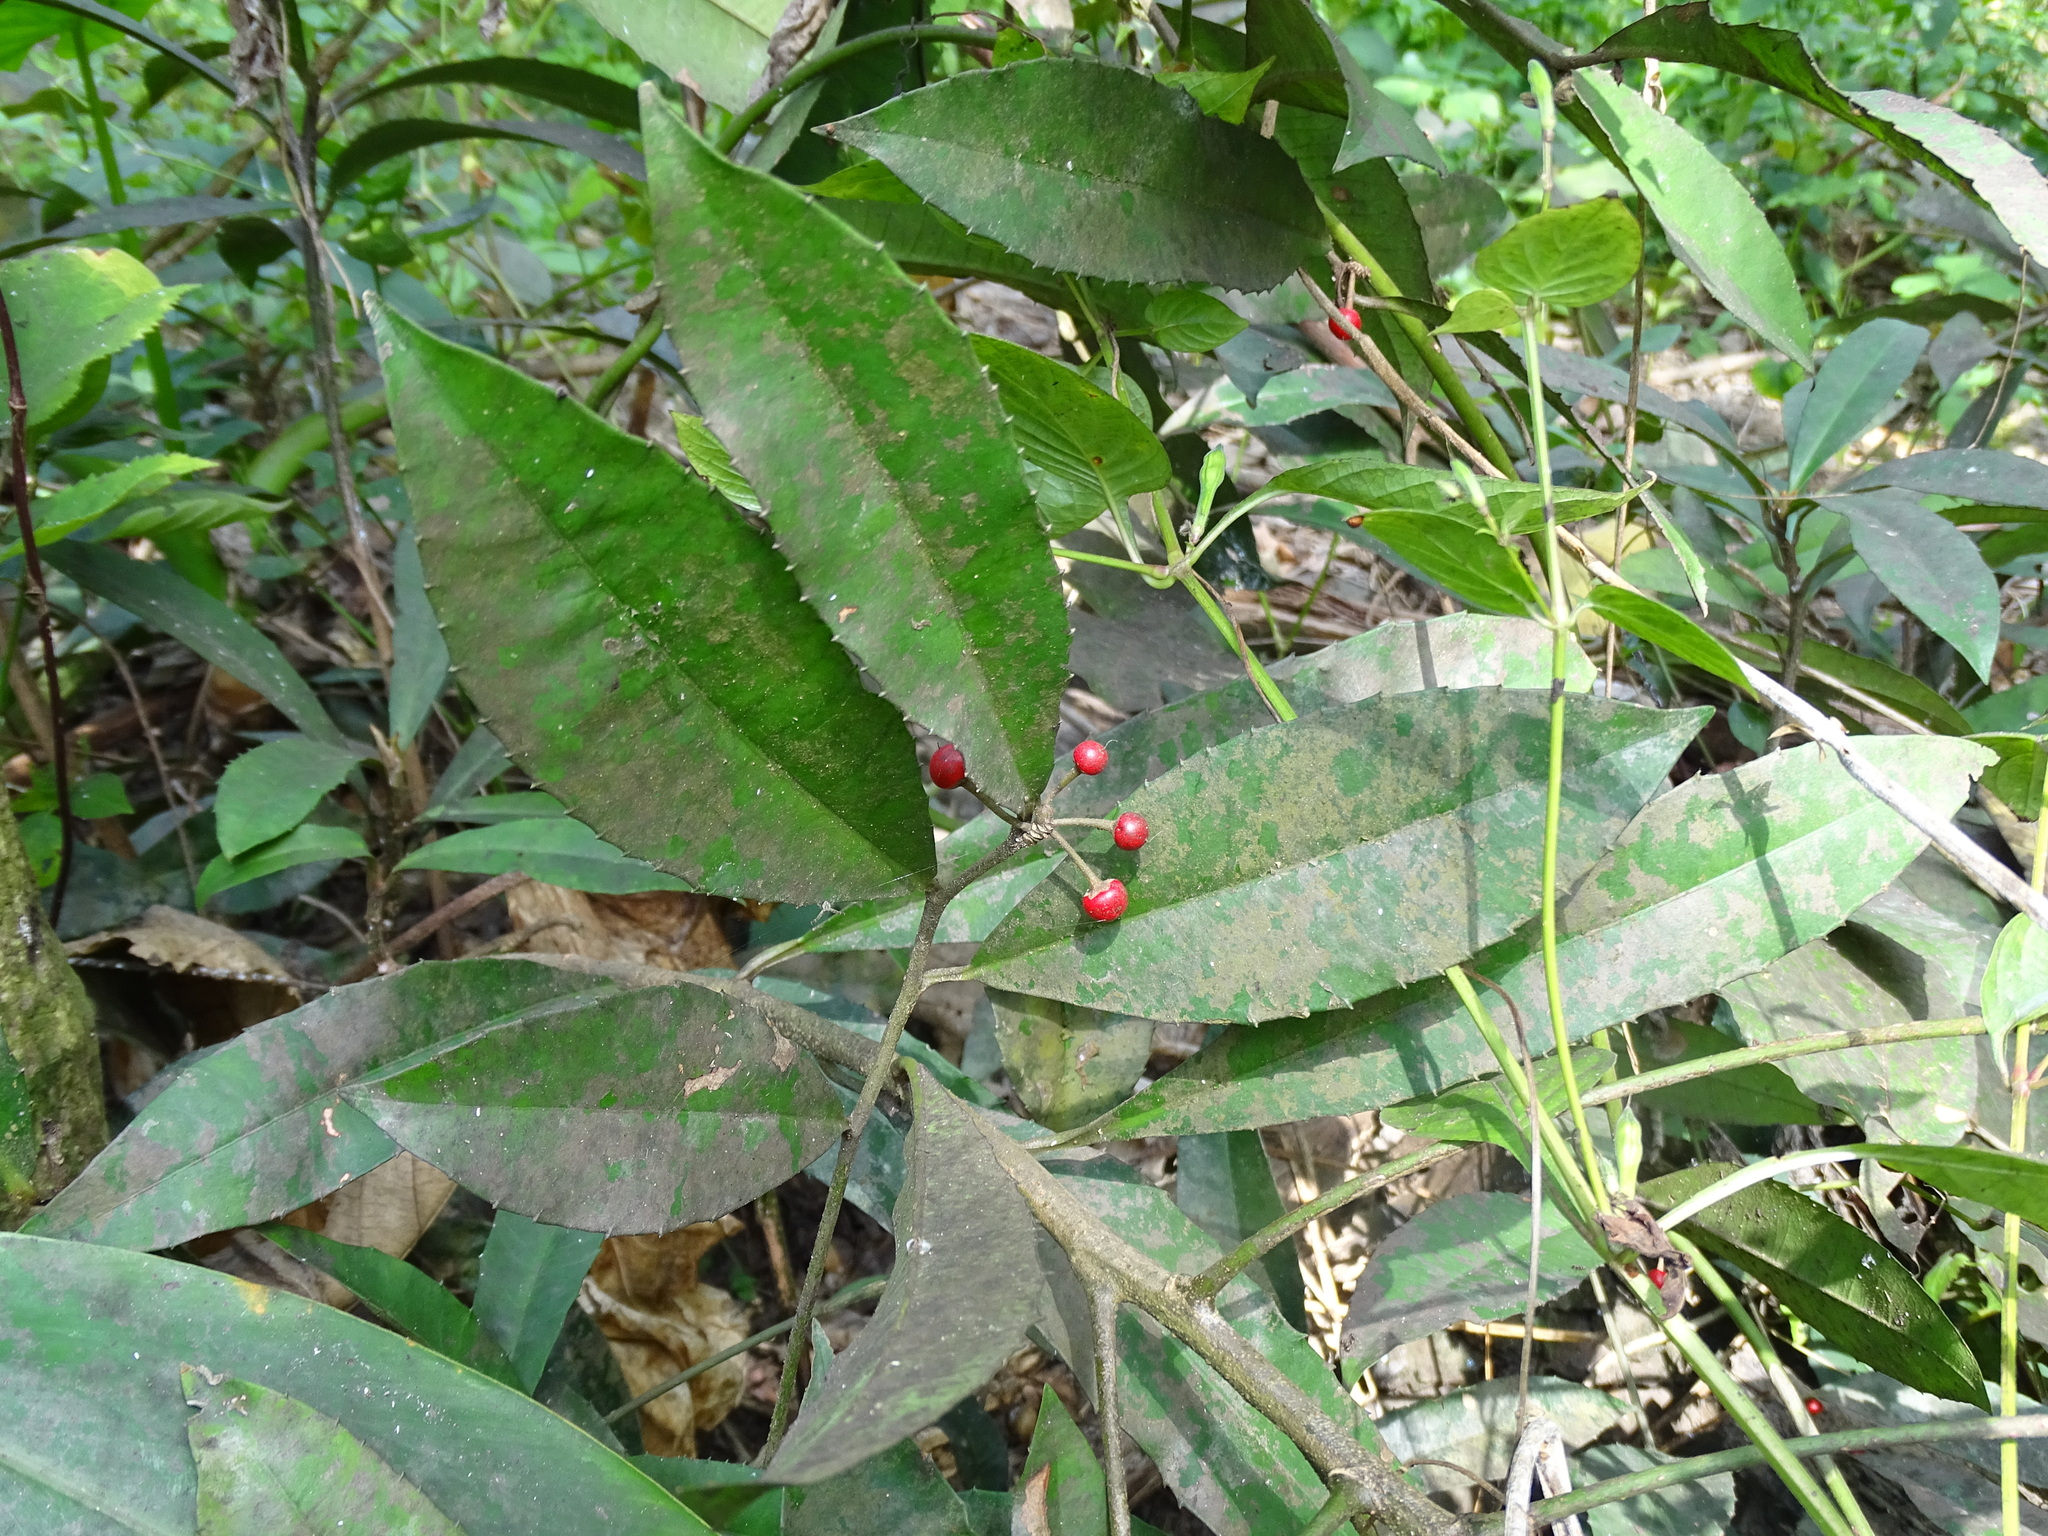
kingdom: Plantae
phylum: Tracheophyta
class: Magnoliopsida
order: Ericales
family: Primulaceae
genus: Ardisia
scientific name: Ardisia cornudentata
